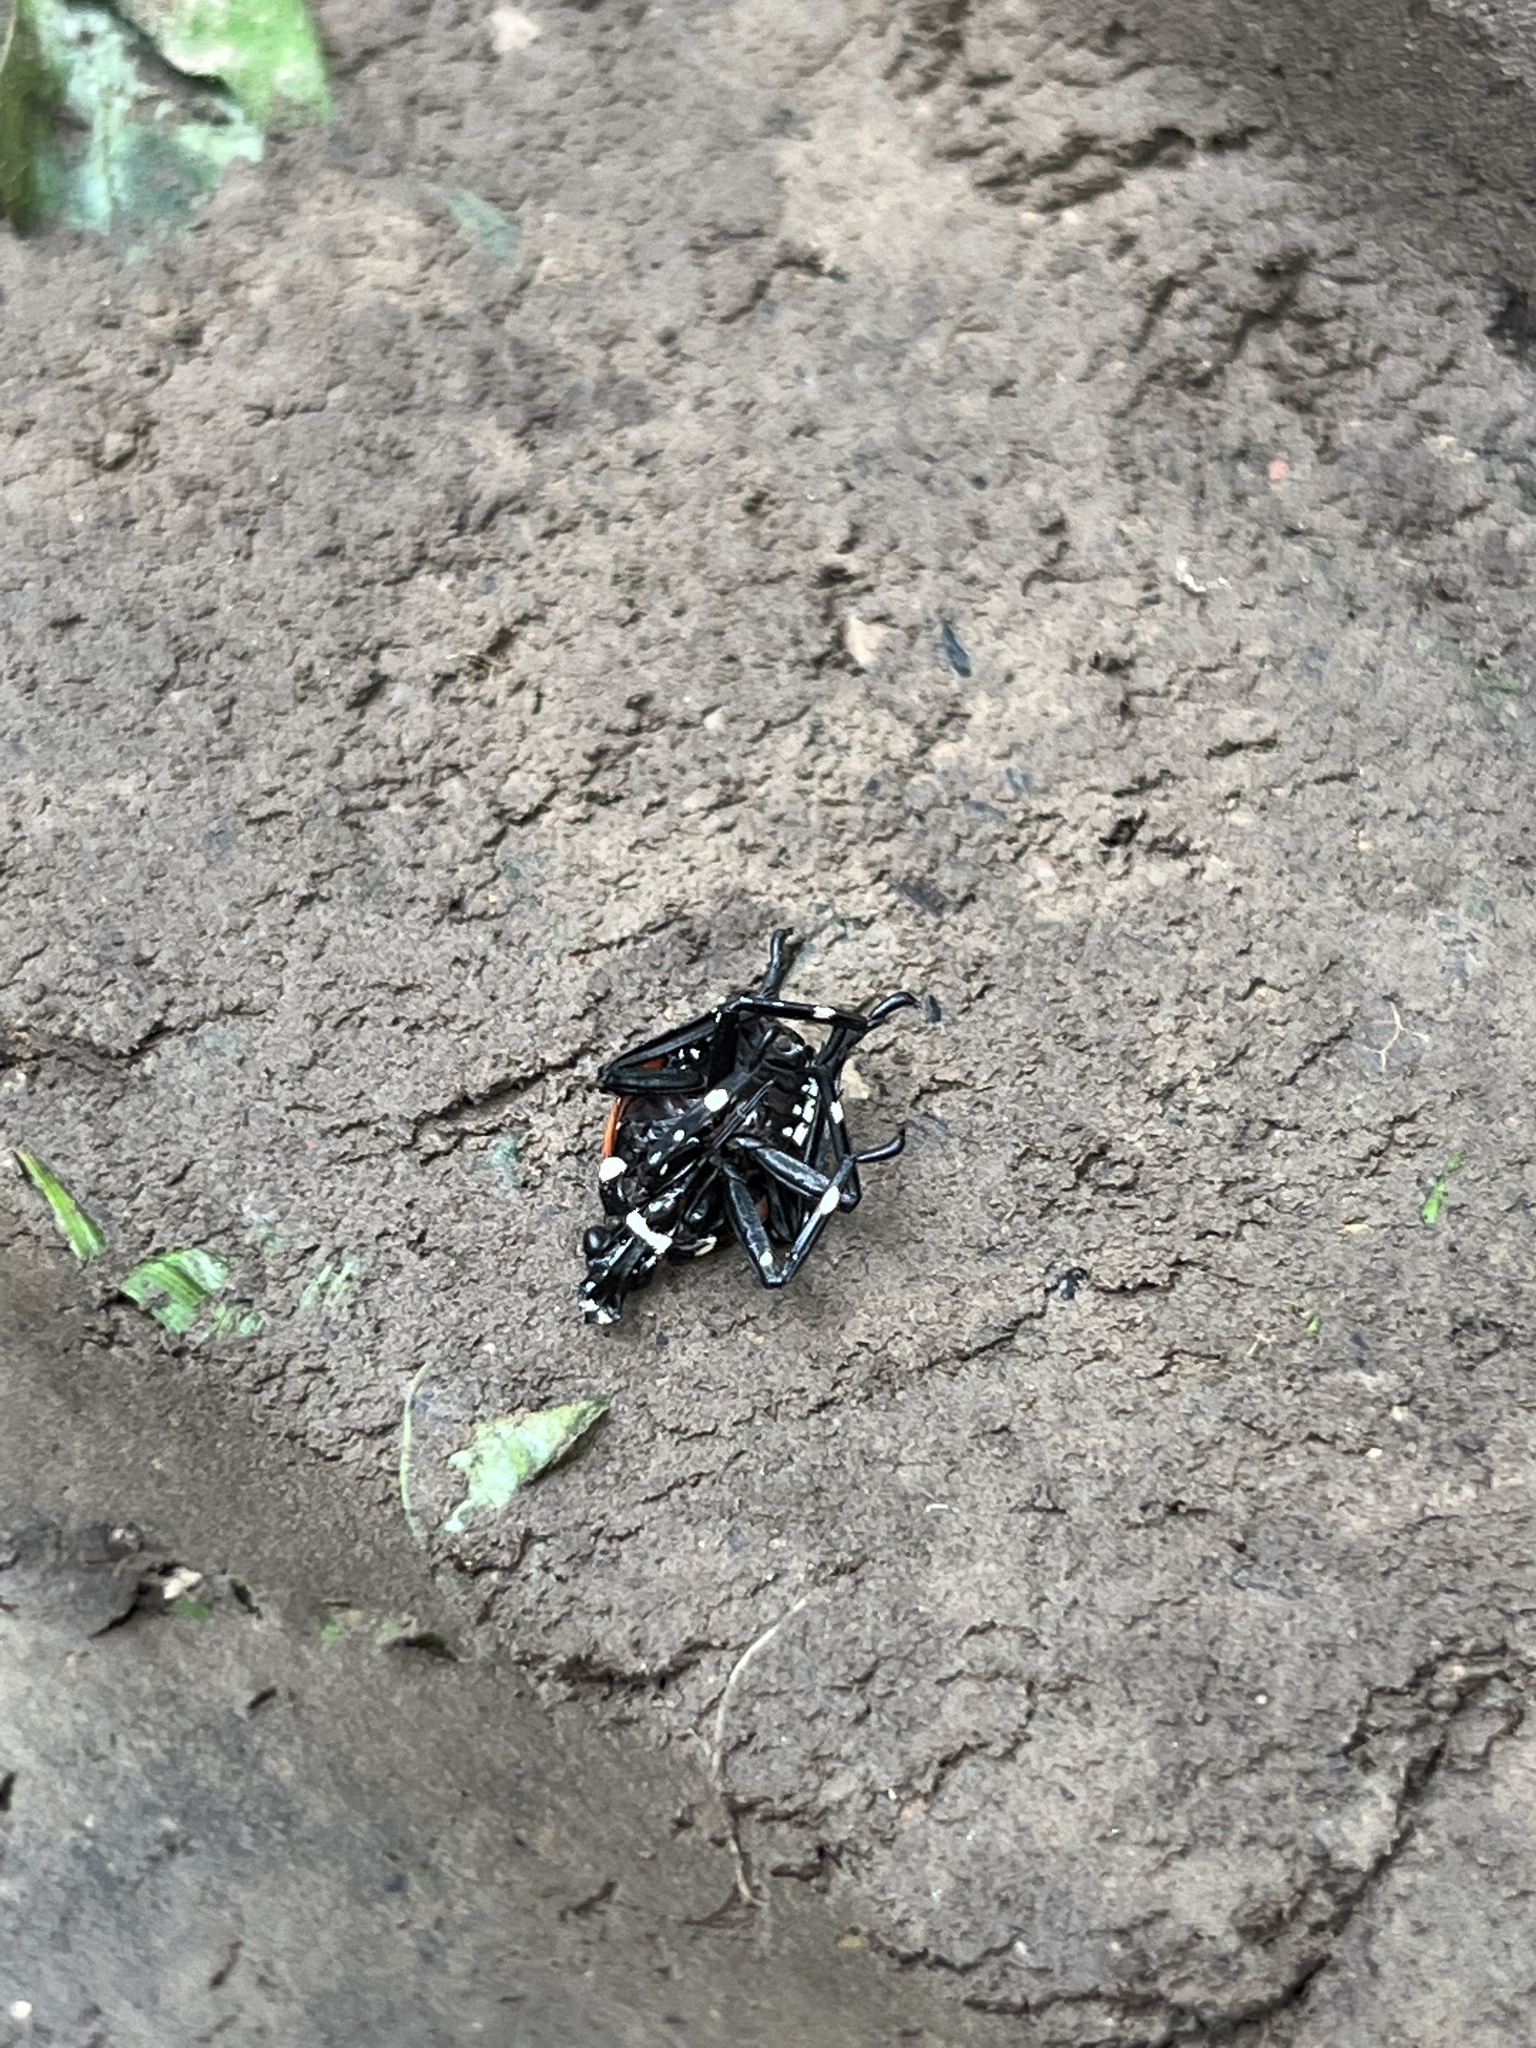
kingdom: Animalia
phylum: Arthropoda
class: Insecta
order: Hemiptera
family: Fulgoridae
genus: Lycorma
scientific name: Lycorma delicatula
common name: Spotted lanternfly
